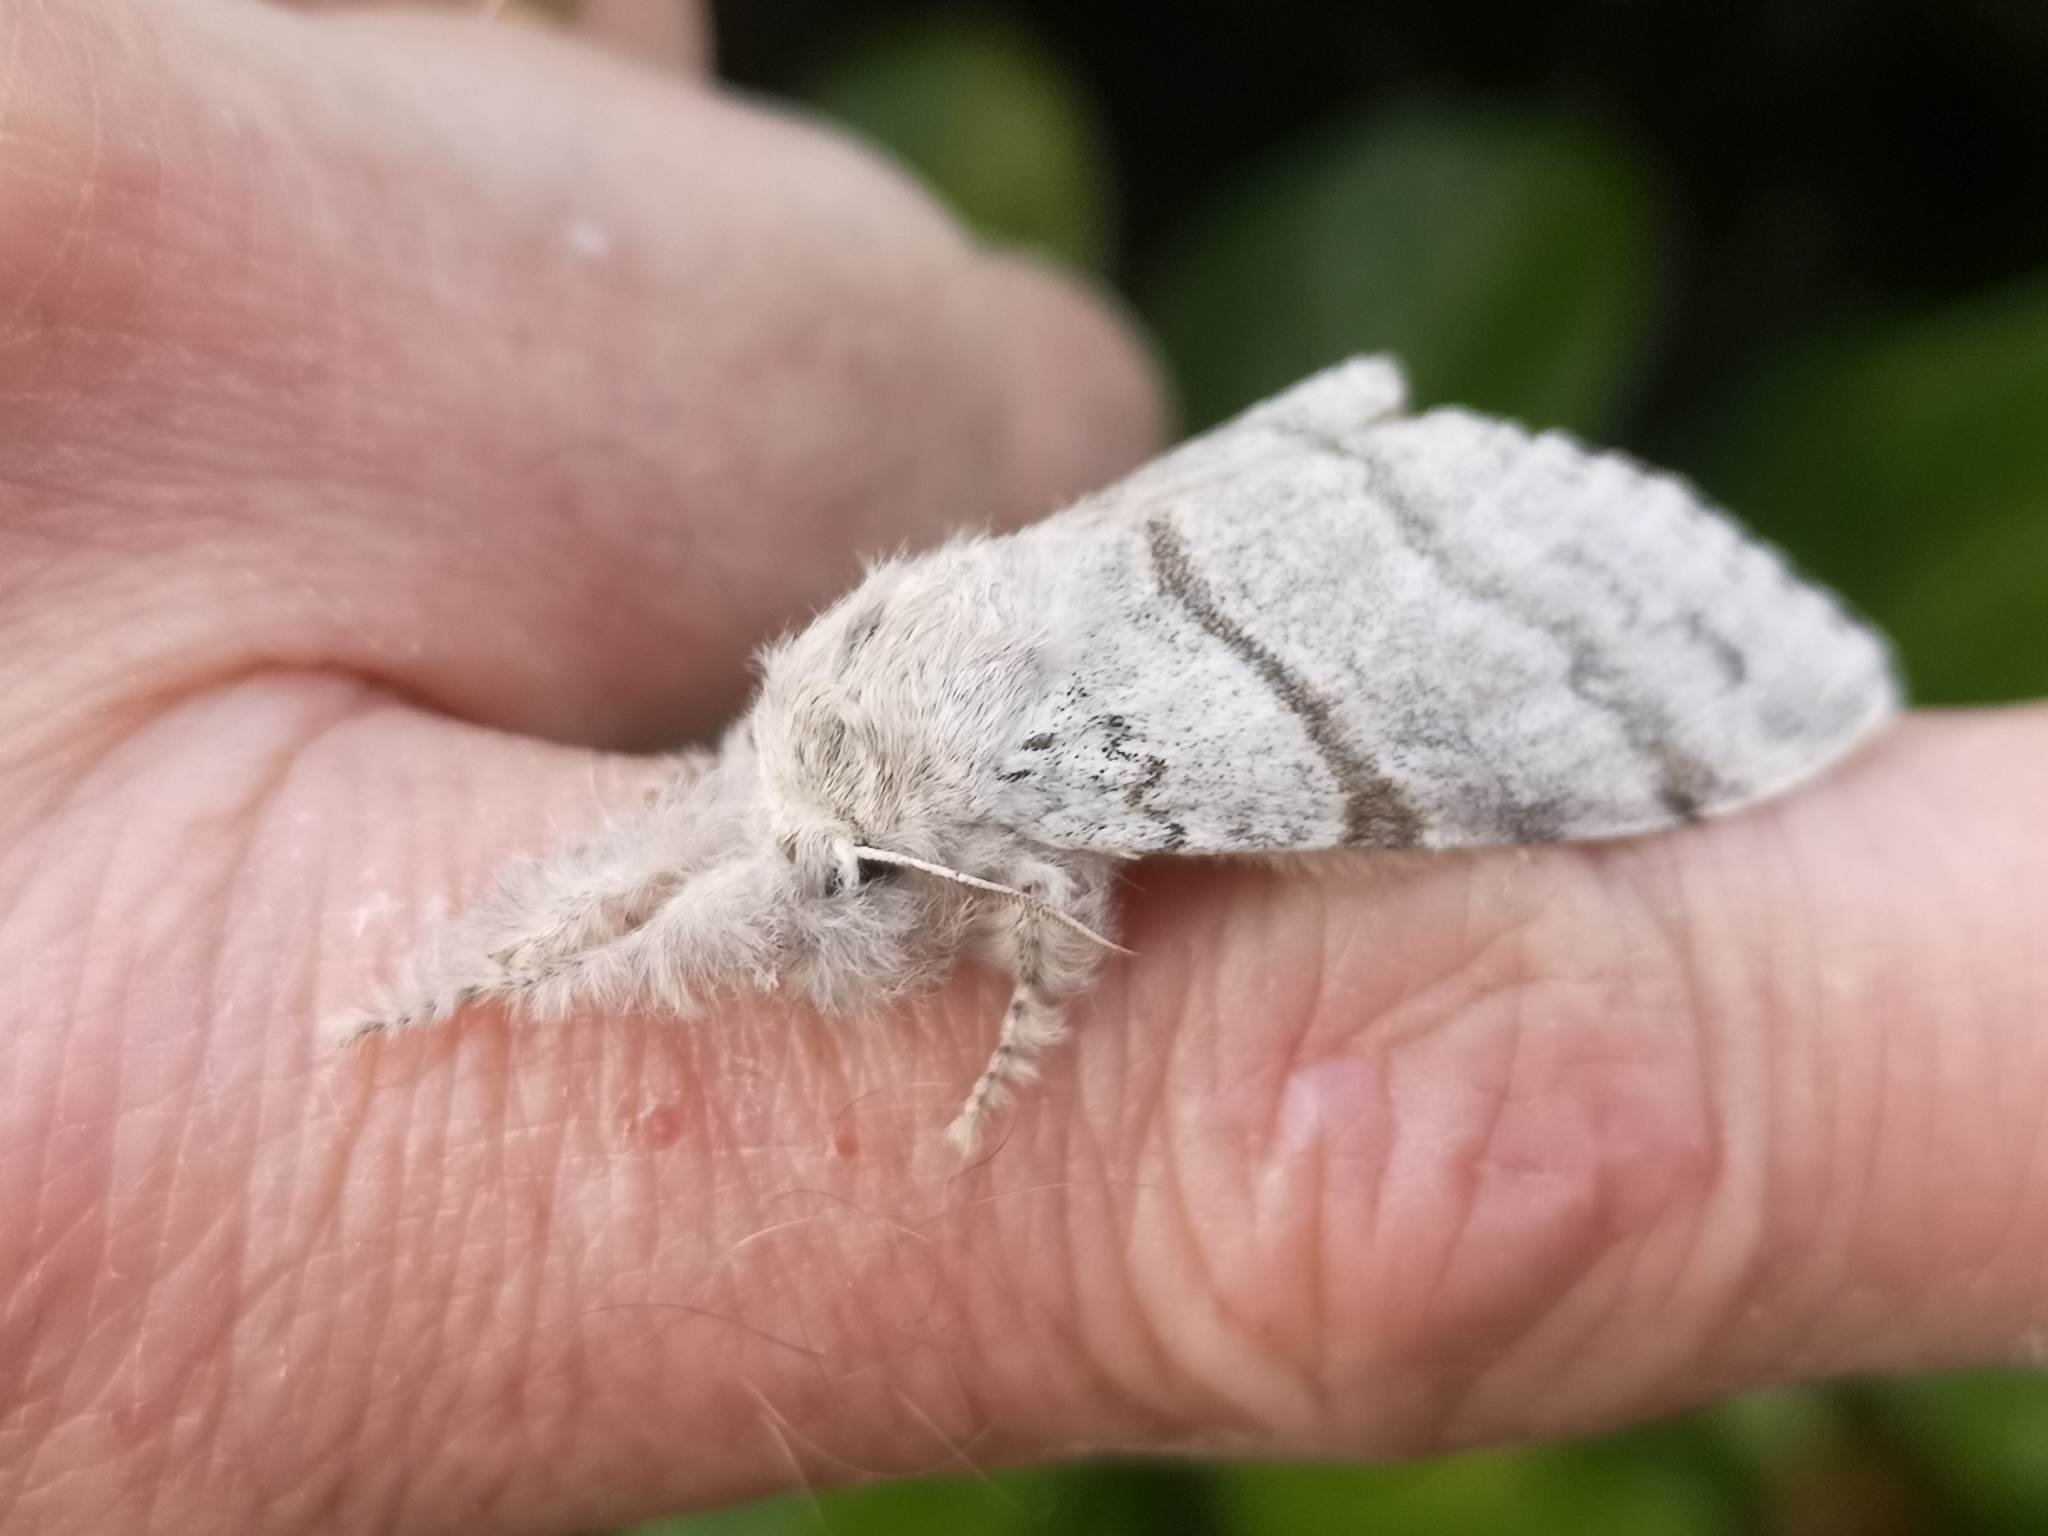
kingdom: Animalia
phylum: Arthropoda
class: Insecta
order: Lepidoptera
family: Erebidae
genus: Calliteara
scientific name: Calliteara pudibunda
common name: Pale tussock
